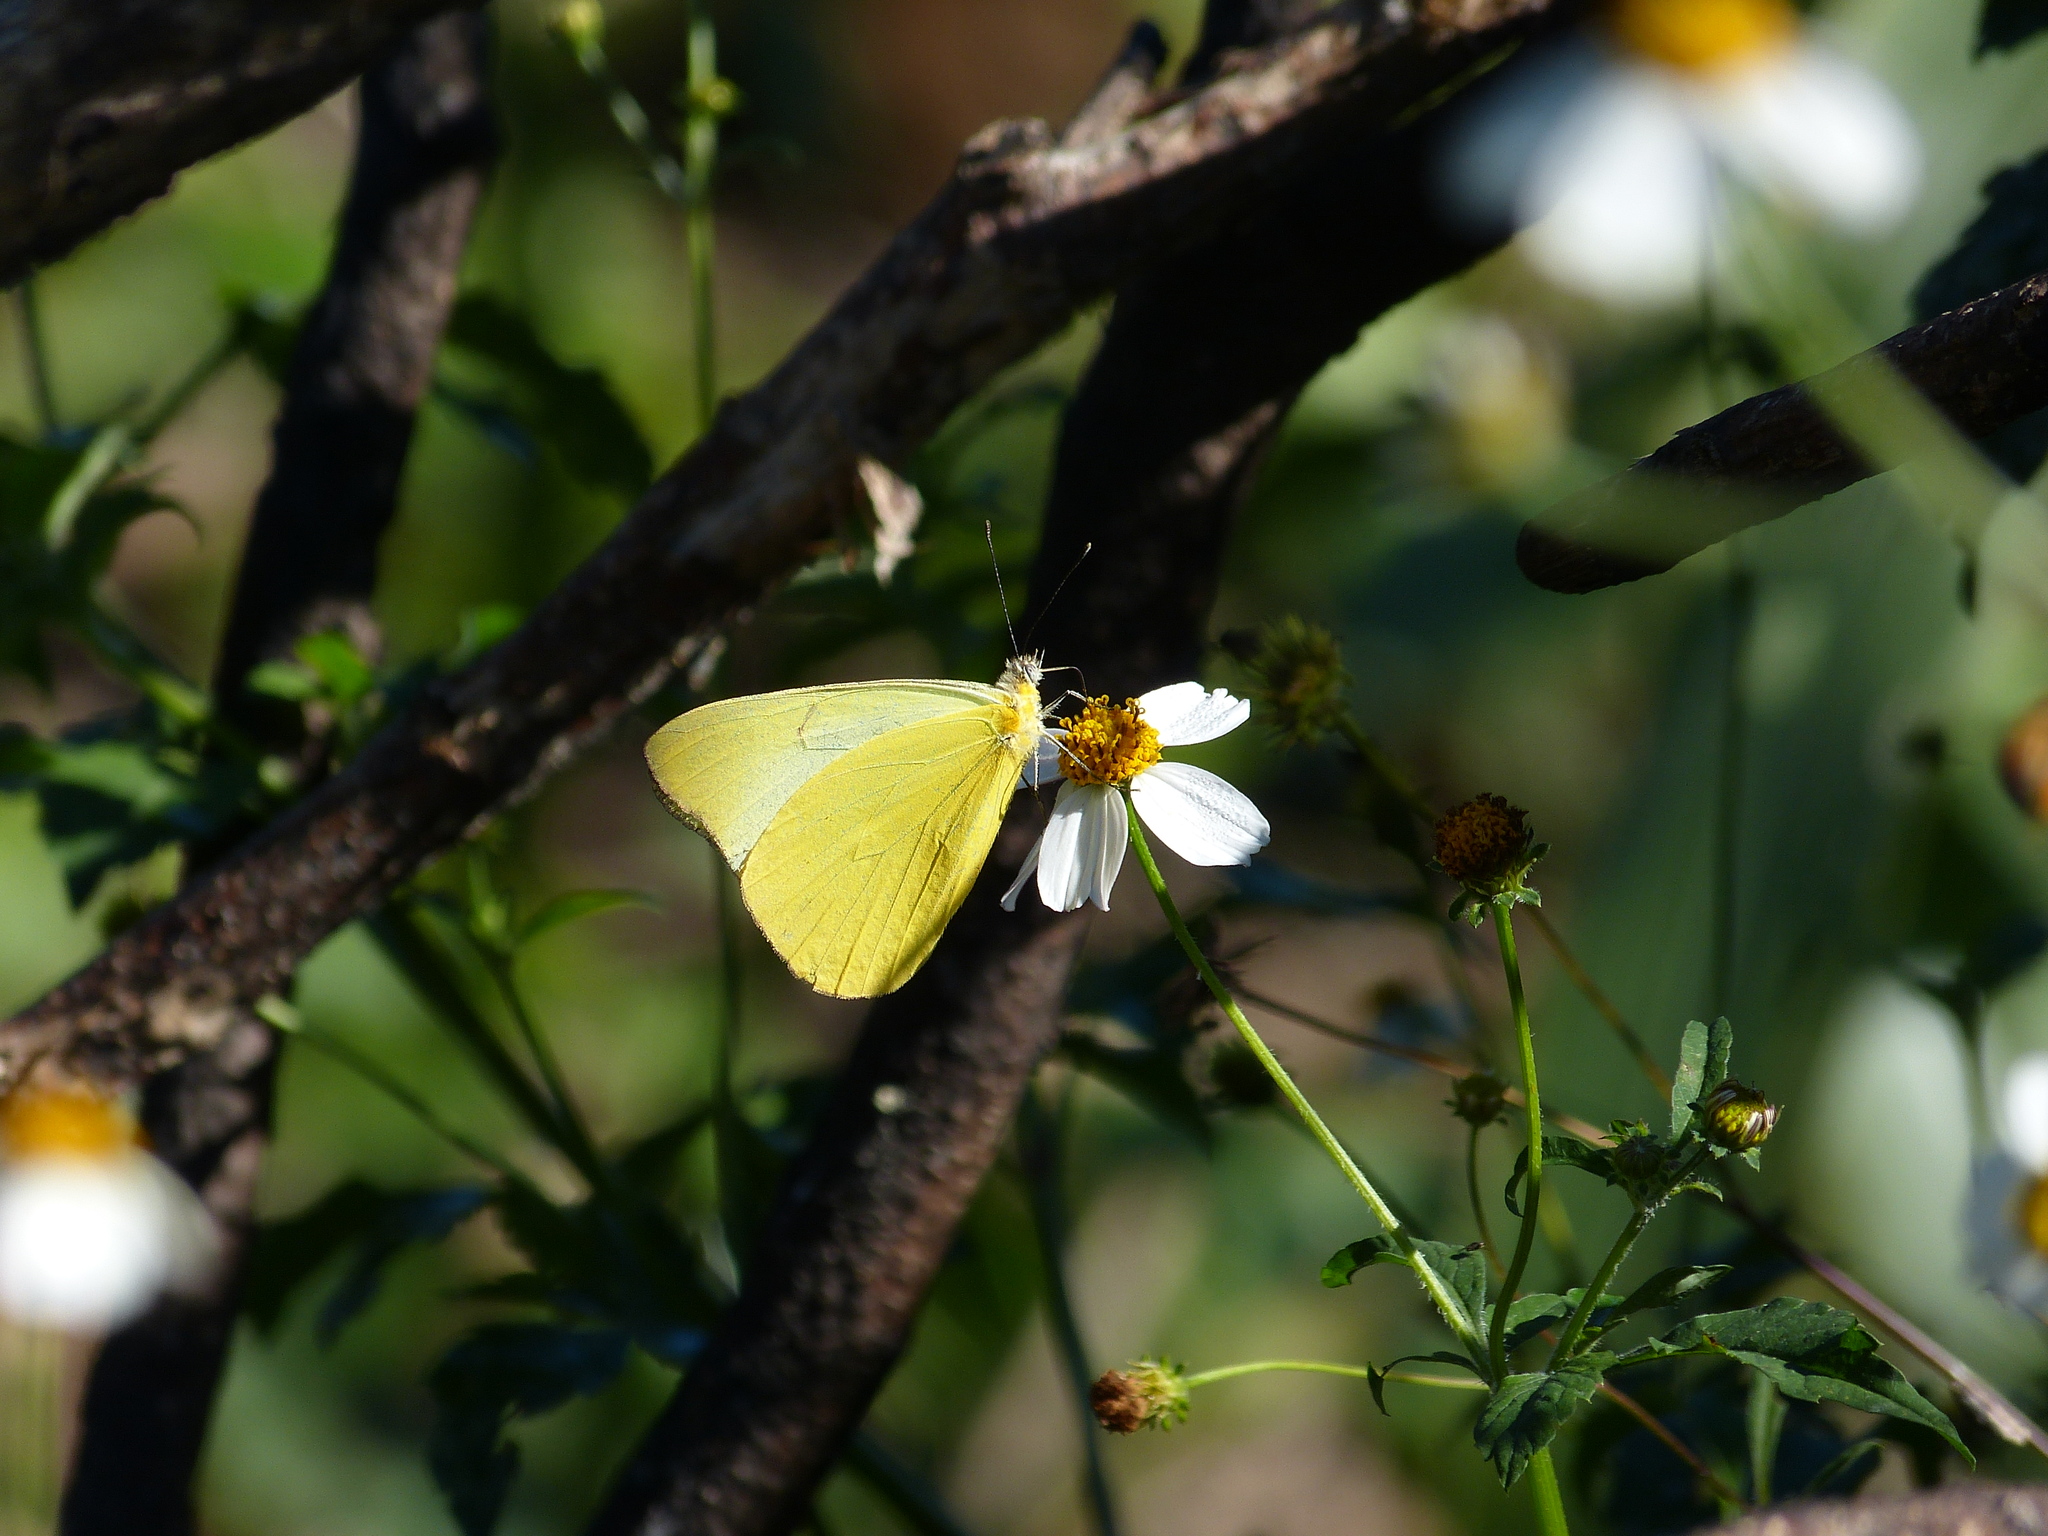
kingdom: Animalia
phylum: Arthropoda
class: Insecta
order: Lepidoptera
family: Pieridae
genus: Melete
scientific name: Melete lycimnia
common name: Common melwhite
